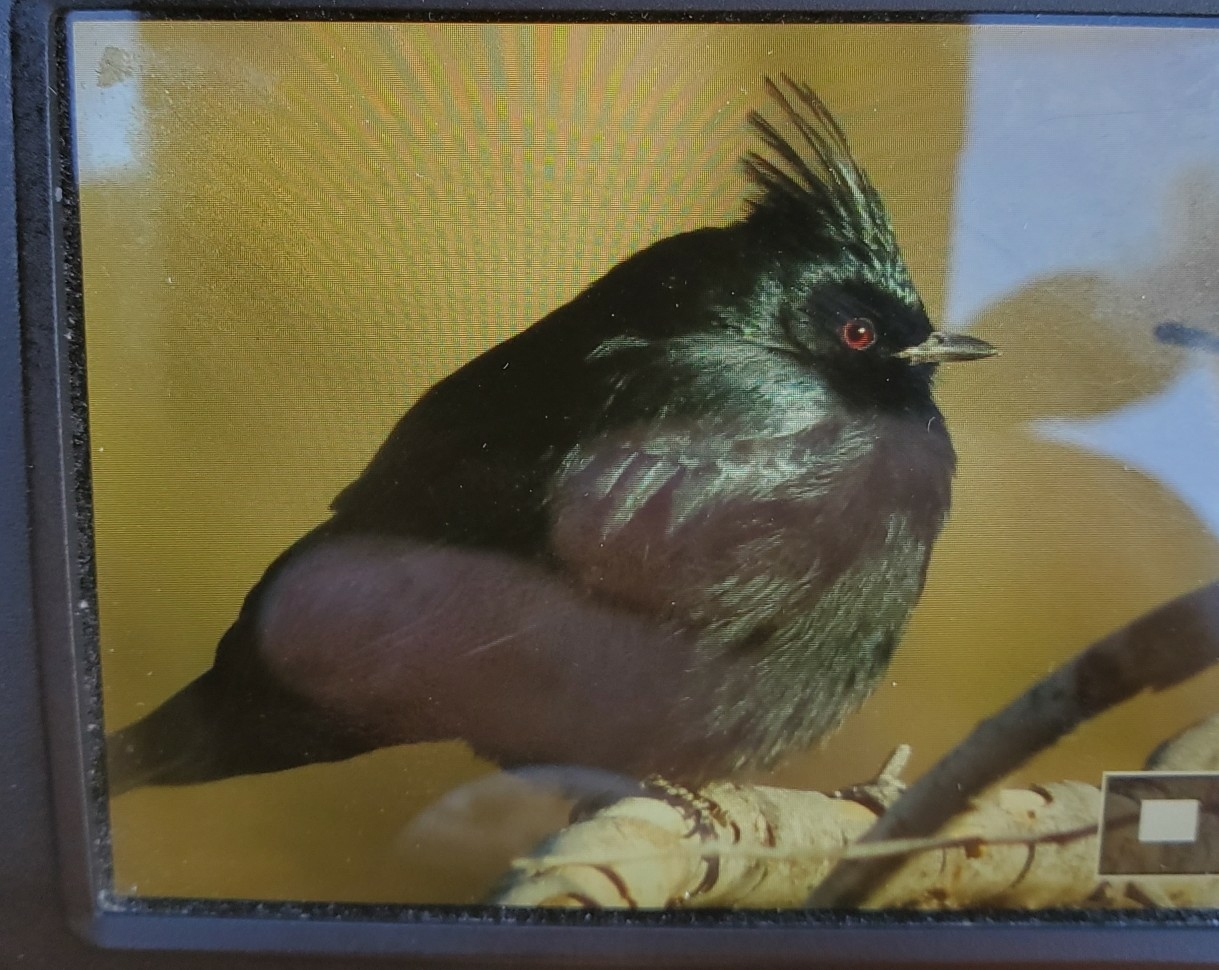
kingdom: Animalia
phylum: Chordata
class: Aves
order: Passeriformes
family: Ptilogonatidae
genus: Phainopepla
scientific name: Phainopepla nitens
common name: Phainopepla
